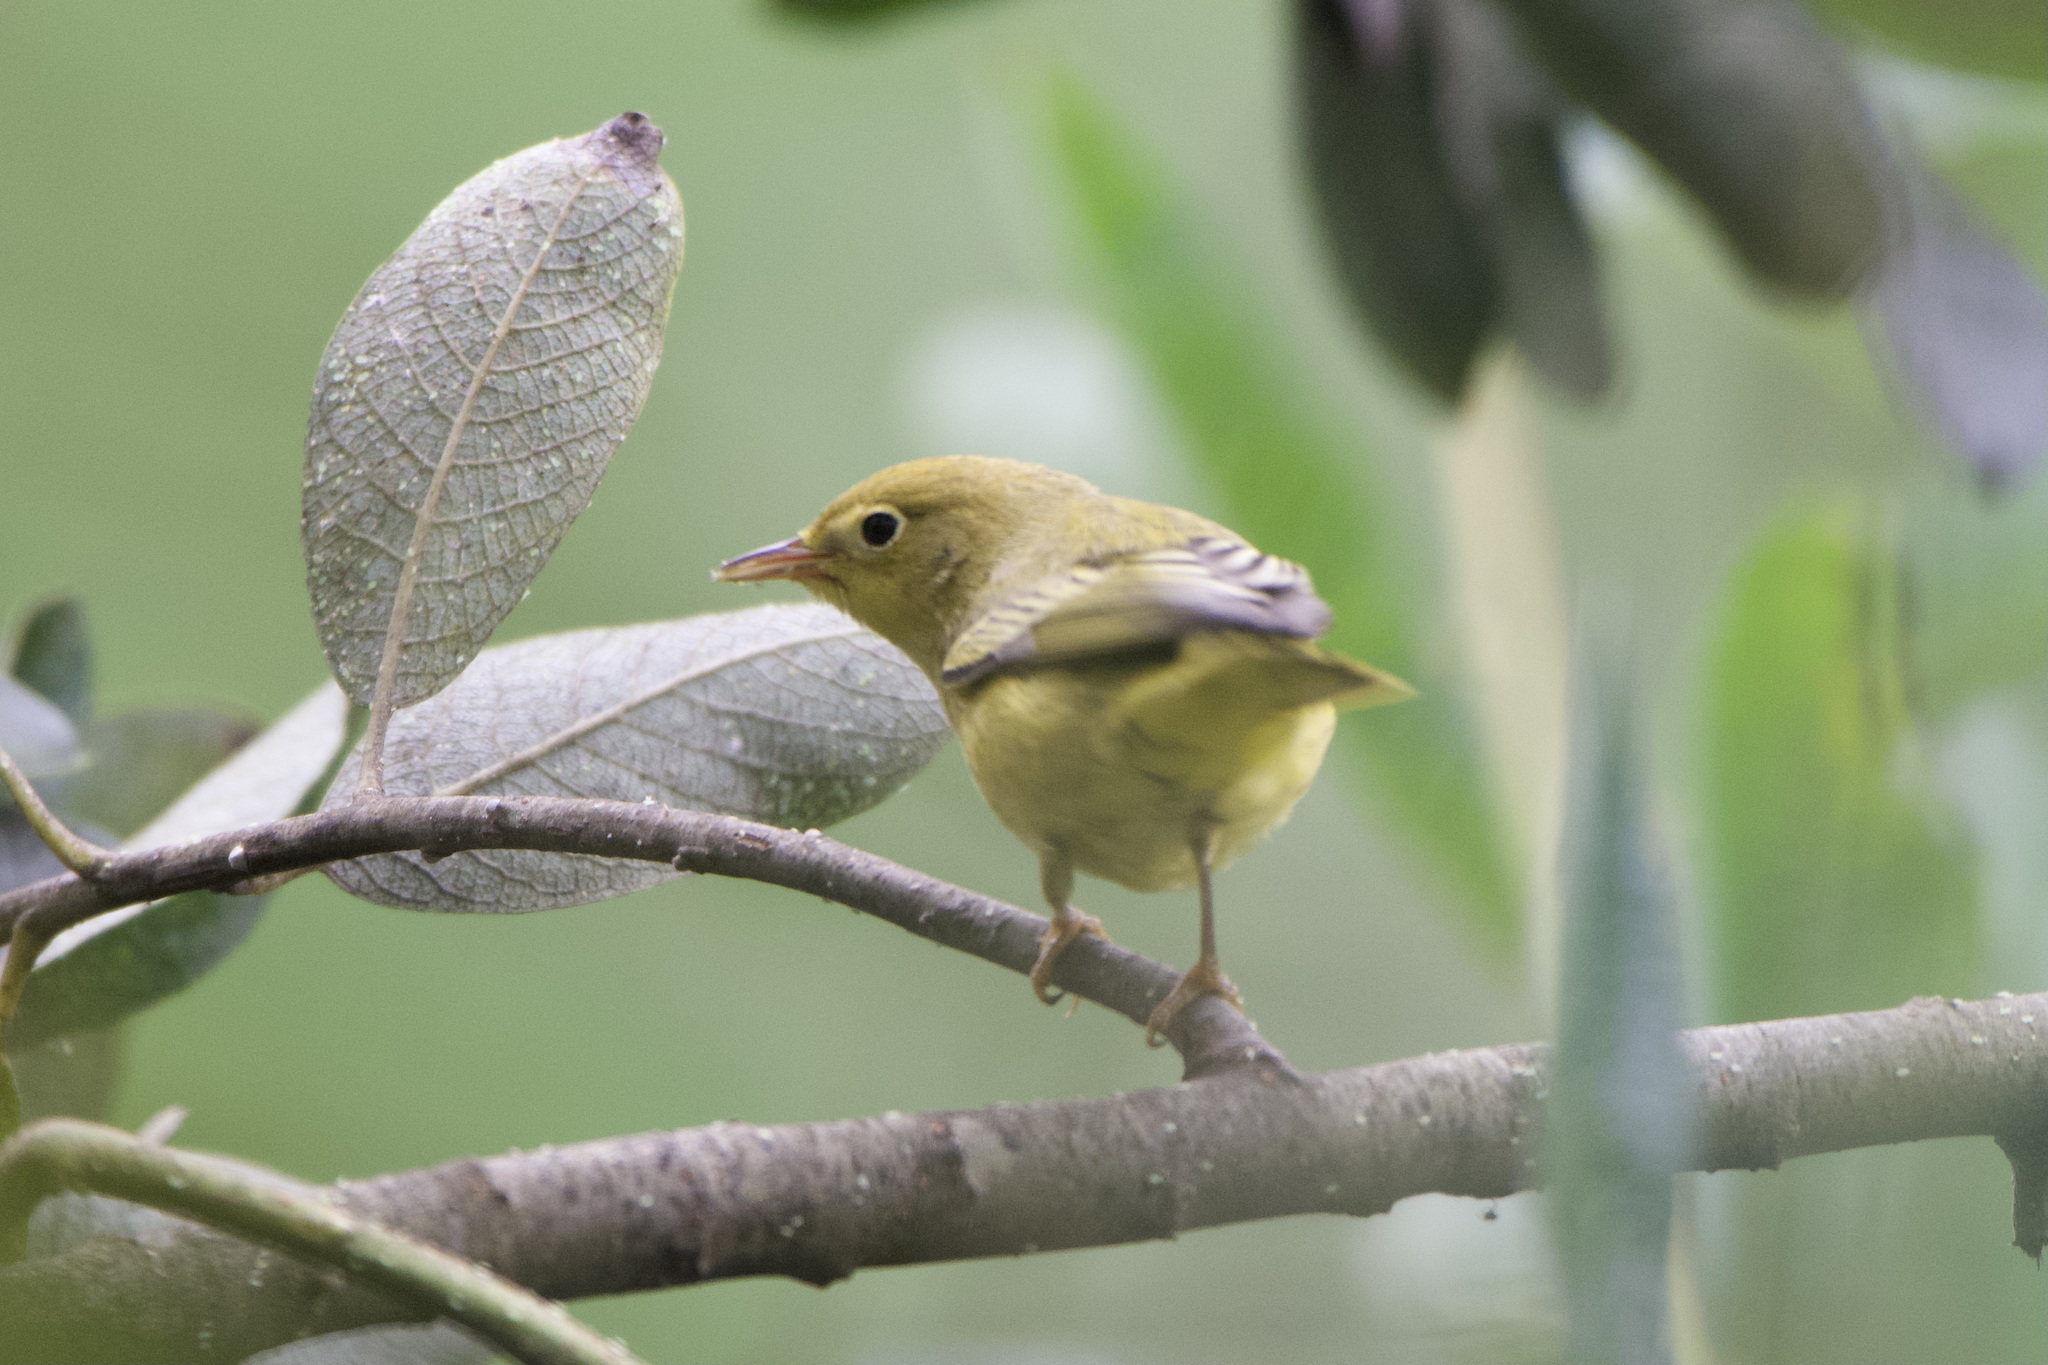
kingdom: Animalia
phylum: Chordata
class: Aves
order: Passeriformes
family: Parulidae
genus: Setophaga
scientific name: Setophaga petechia
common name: Yellow warbler
